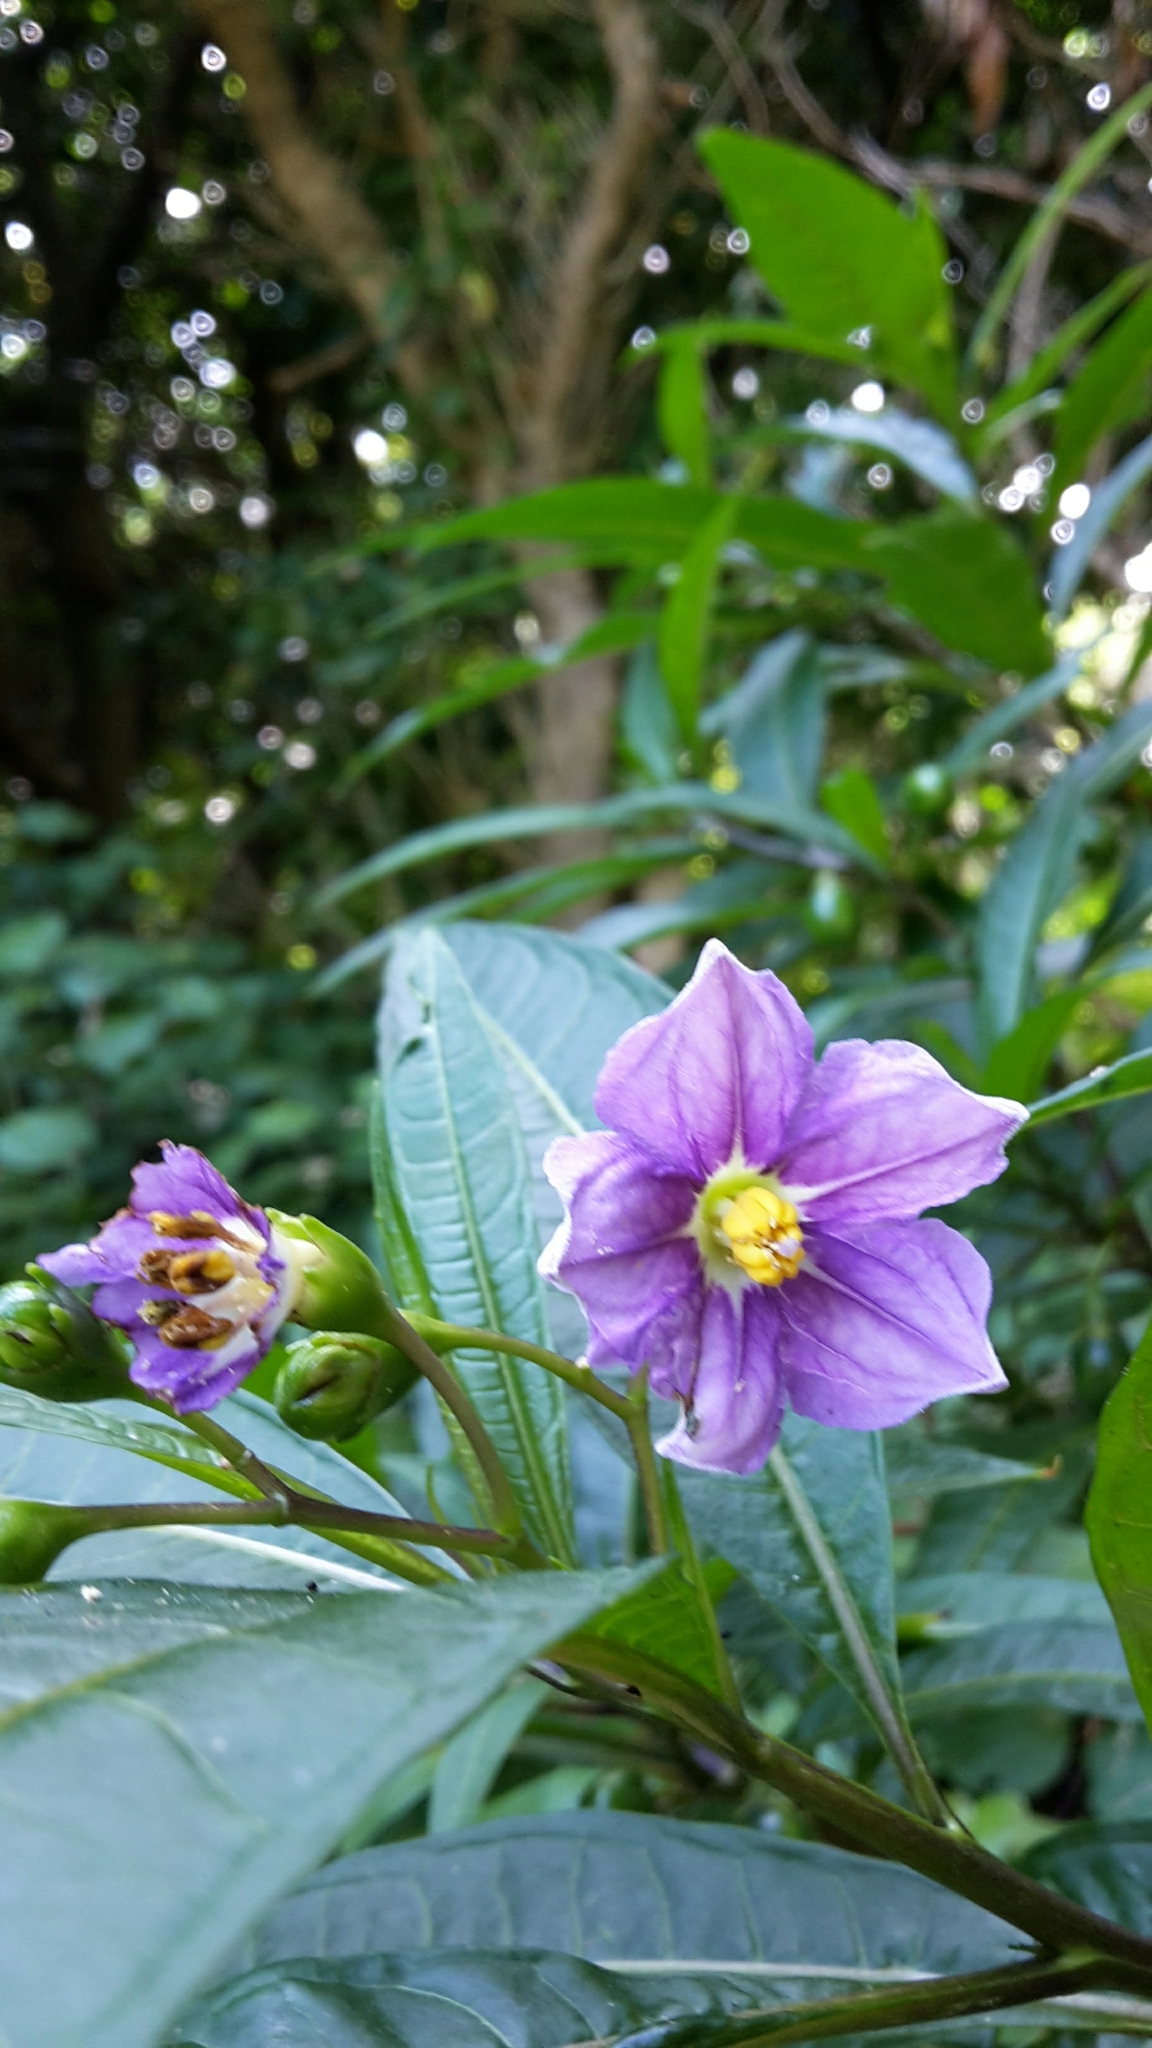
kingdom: Plantae
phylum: Tracheophyta
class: Magnoliopsida
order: Solanales
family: Solanaceae
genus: Solanum
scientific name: Solanum aviculare
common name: New zealand nightshade
